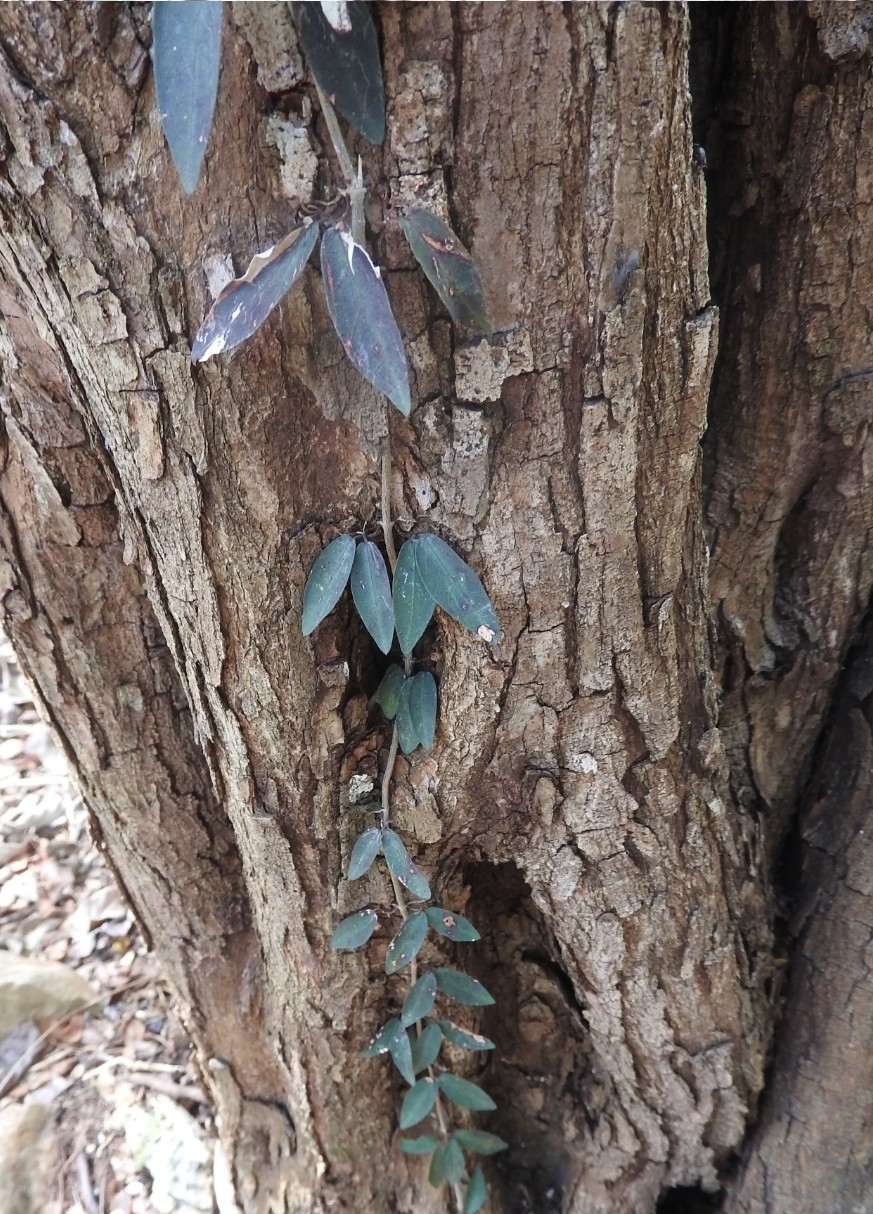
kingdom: Plantae
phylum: Tracheophyta
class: Magnoliopsida
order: Lamiales
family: Bignoniaceae
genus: Dolichandra
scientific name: Dolichandra unguis-cati
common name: Catclaw vine
